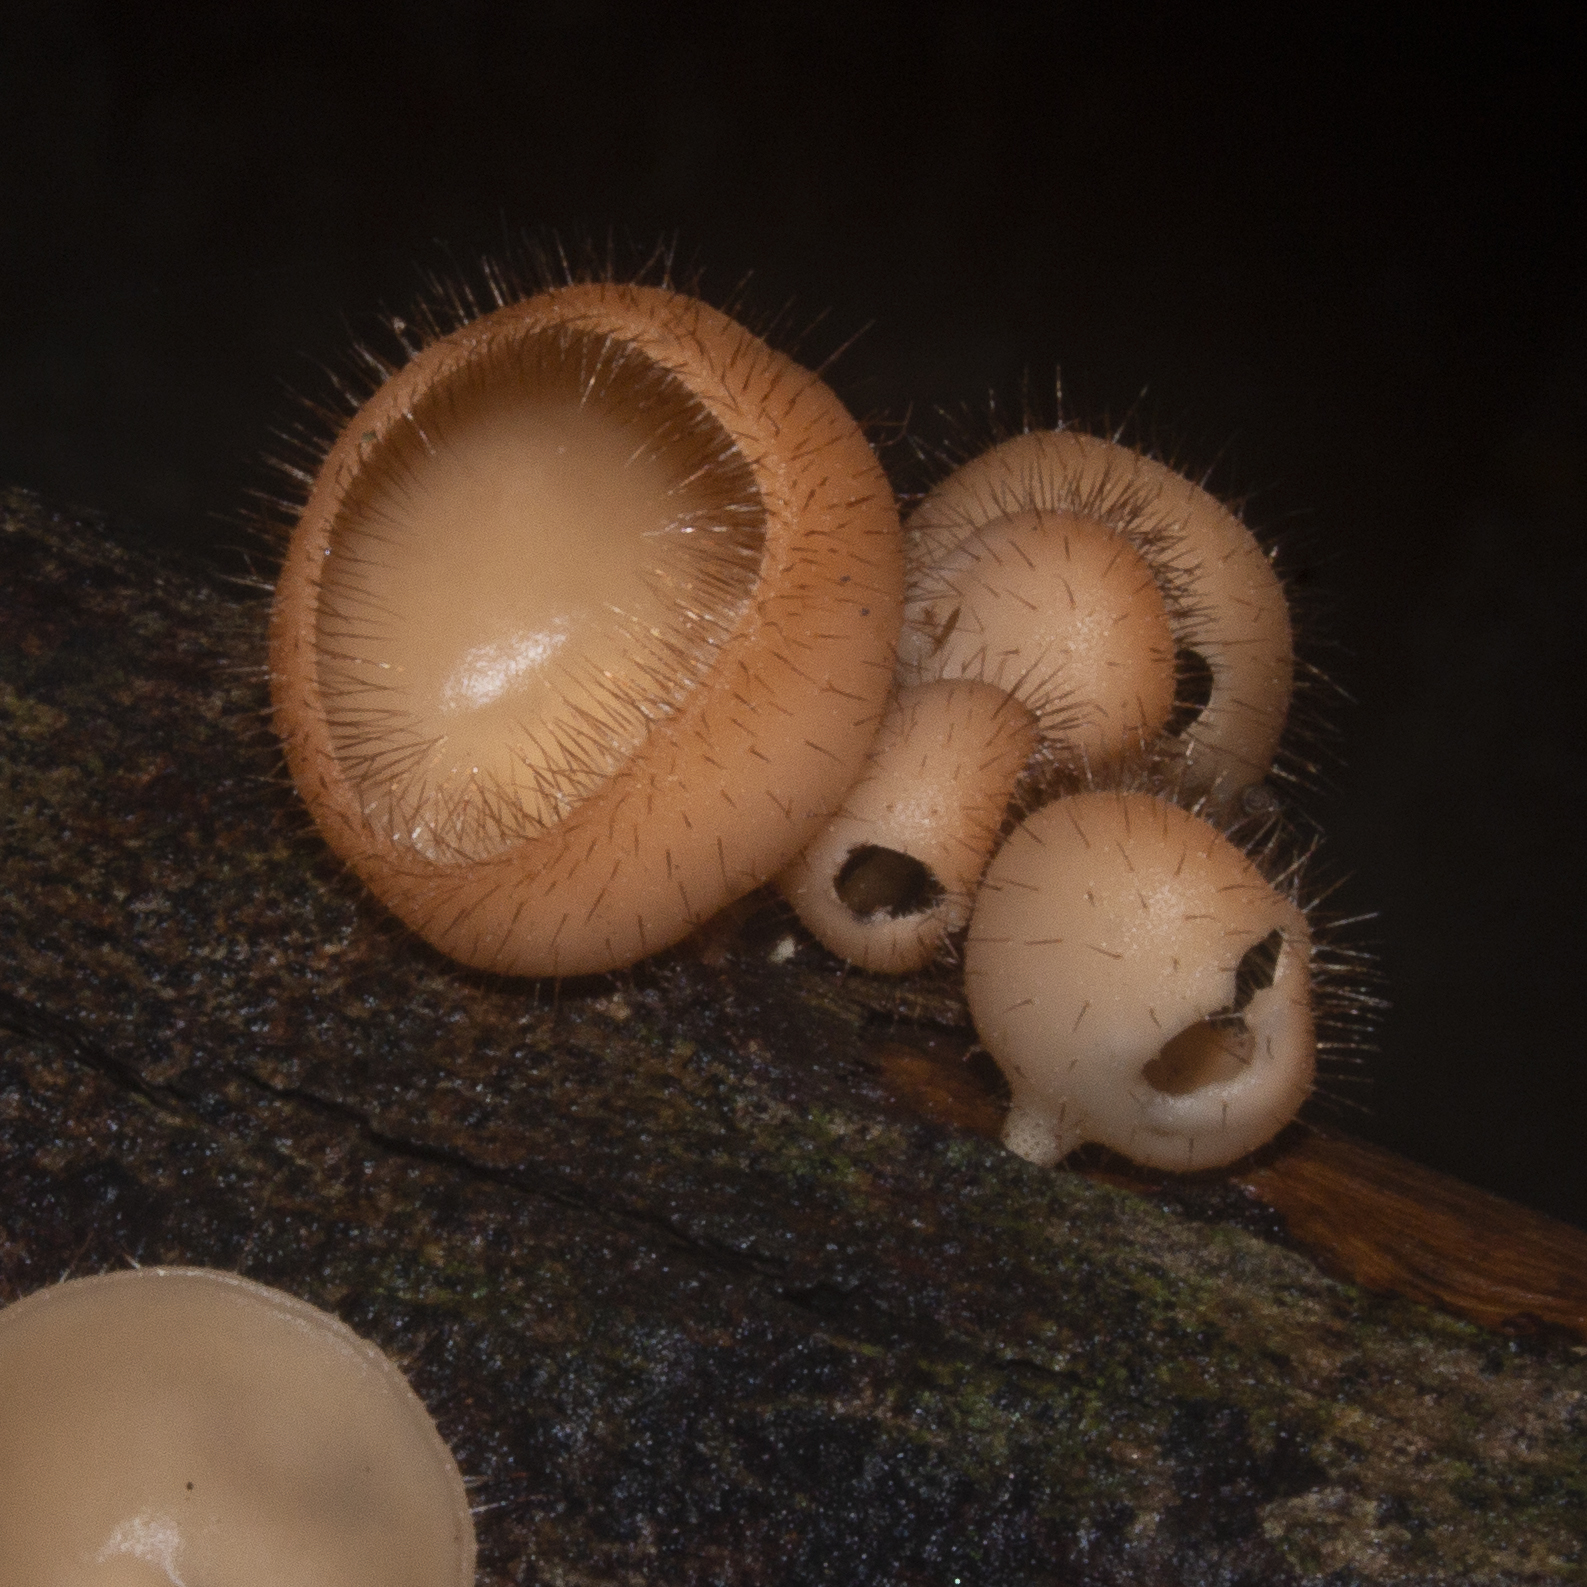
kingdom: Fungi
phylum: Ascomycota
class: Pezizomycetes
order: Pezizales
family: Sarcoscyphaceae
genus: Cookeina
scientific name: Cookeina tricholoma
